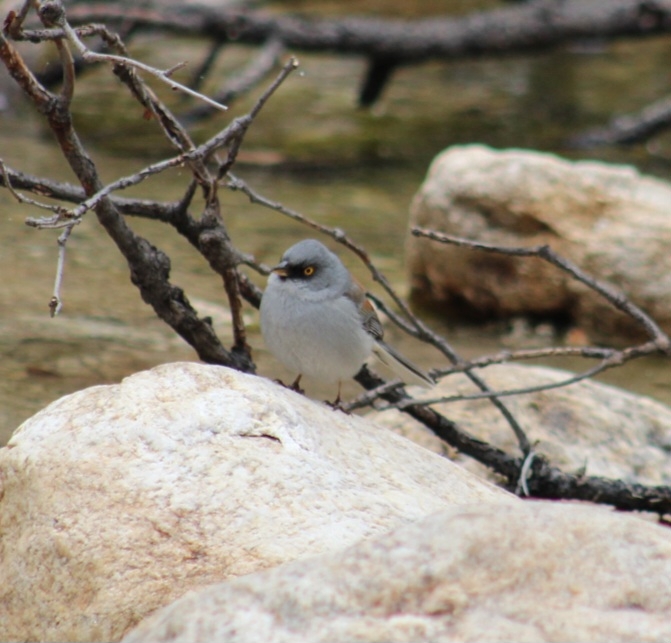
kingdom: Animalia
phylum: Chordata
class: Aves
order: Passeriformes
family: Passerellidae
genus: Junco
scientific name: Junco phaeonotus
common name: Yellow-eyed junco
